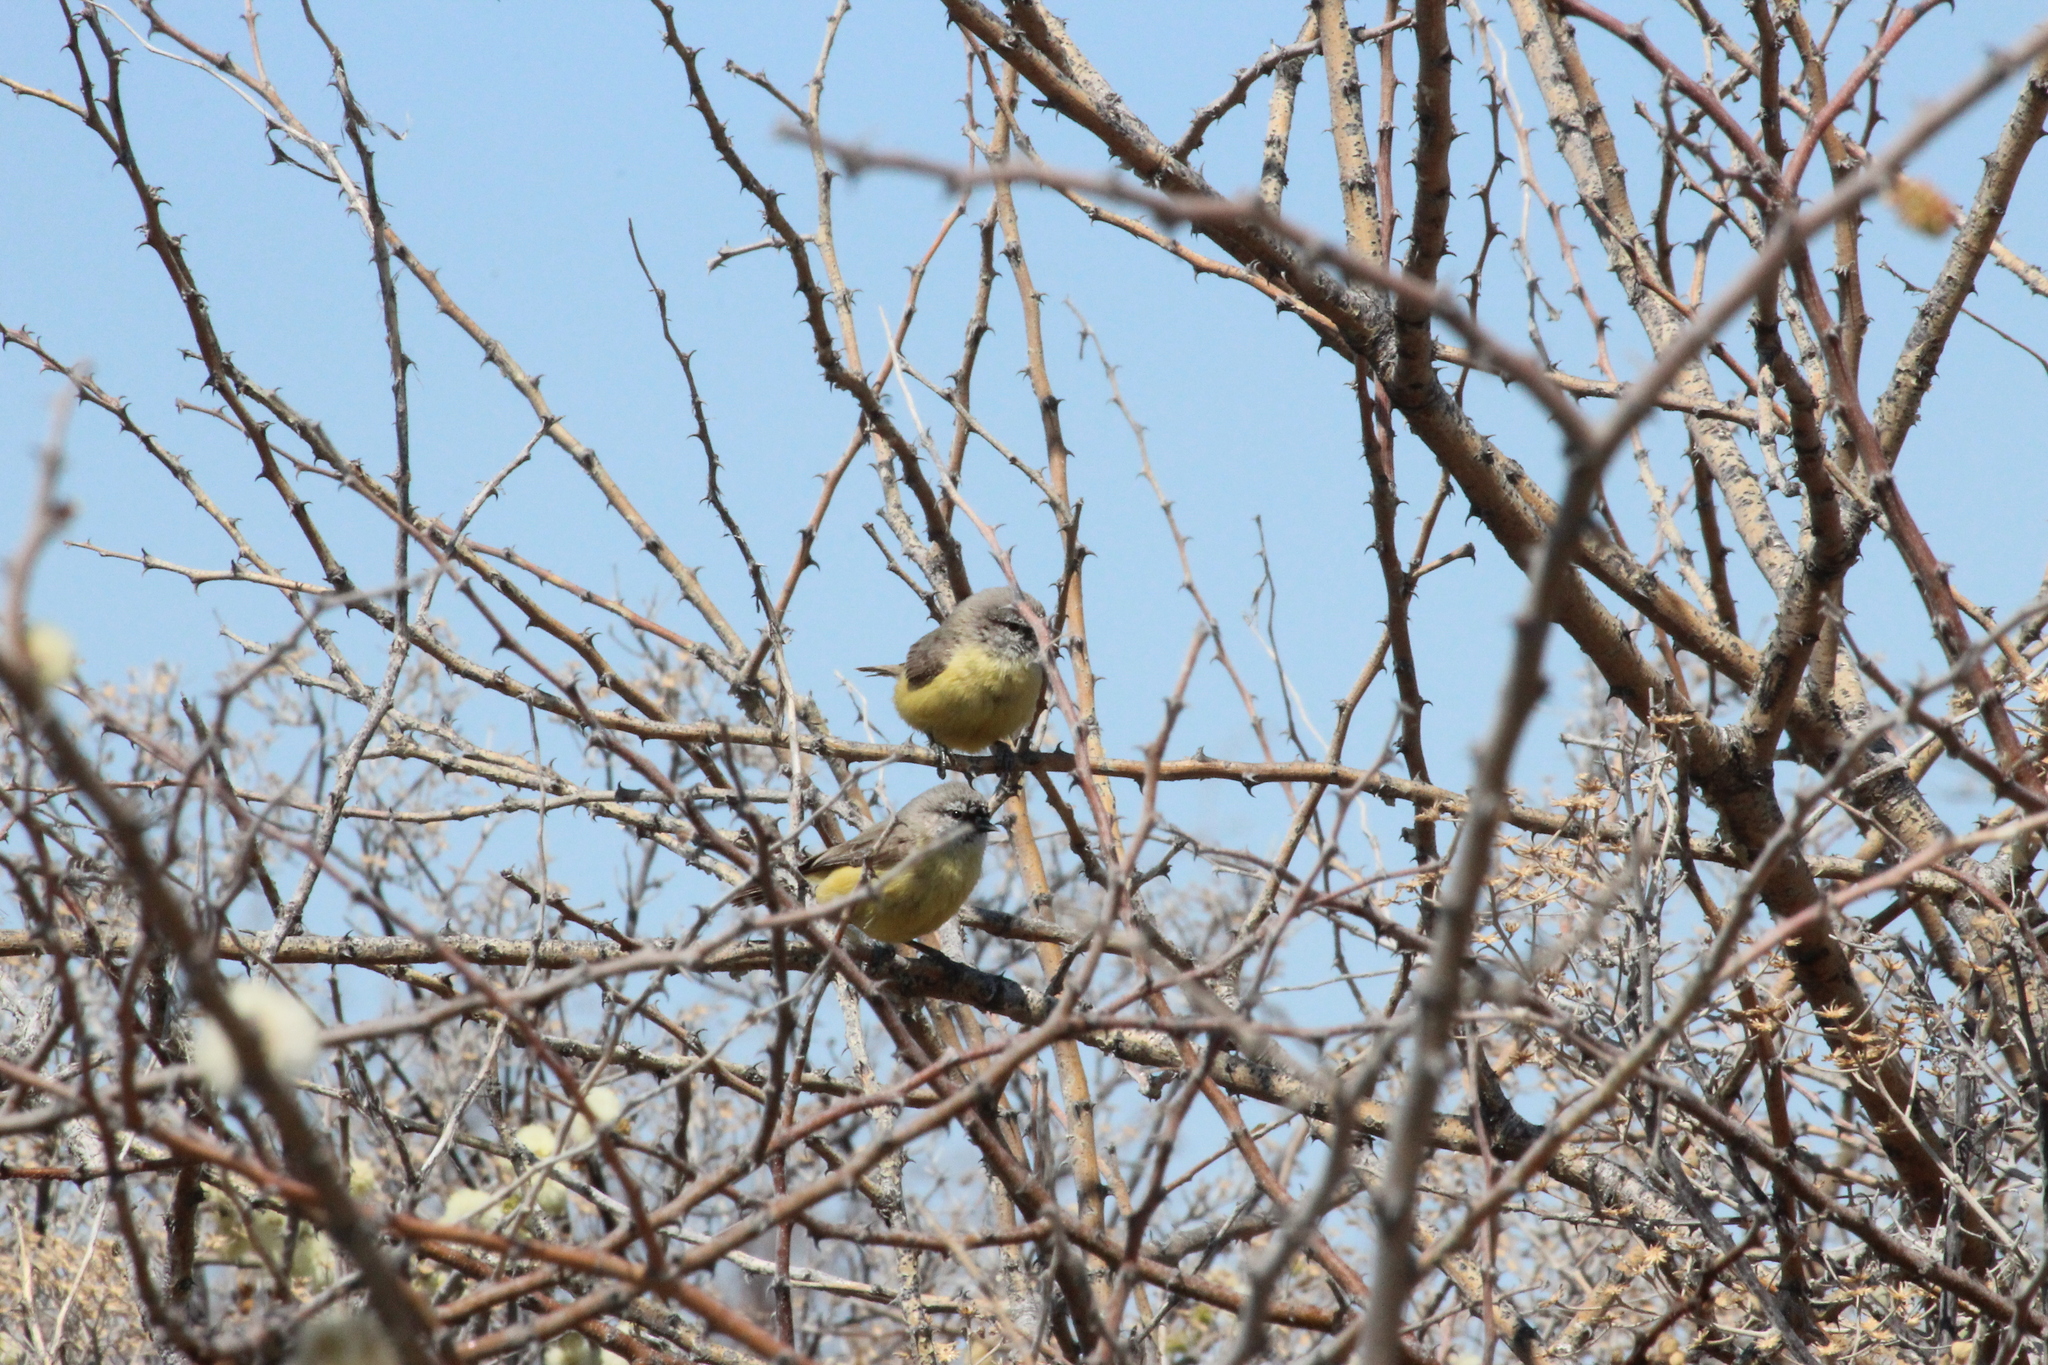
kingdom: Animalia
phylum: Chordata
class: Aves
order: Passeriformes
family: Remizidae
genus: Anthoscopus
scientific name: Anthoscopus minutus
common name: Cape penduline tit
